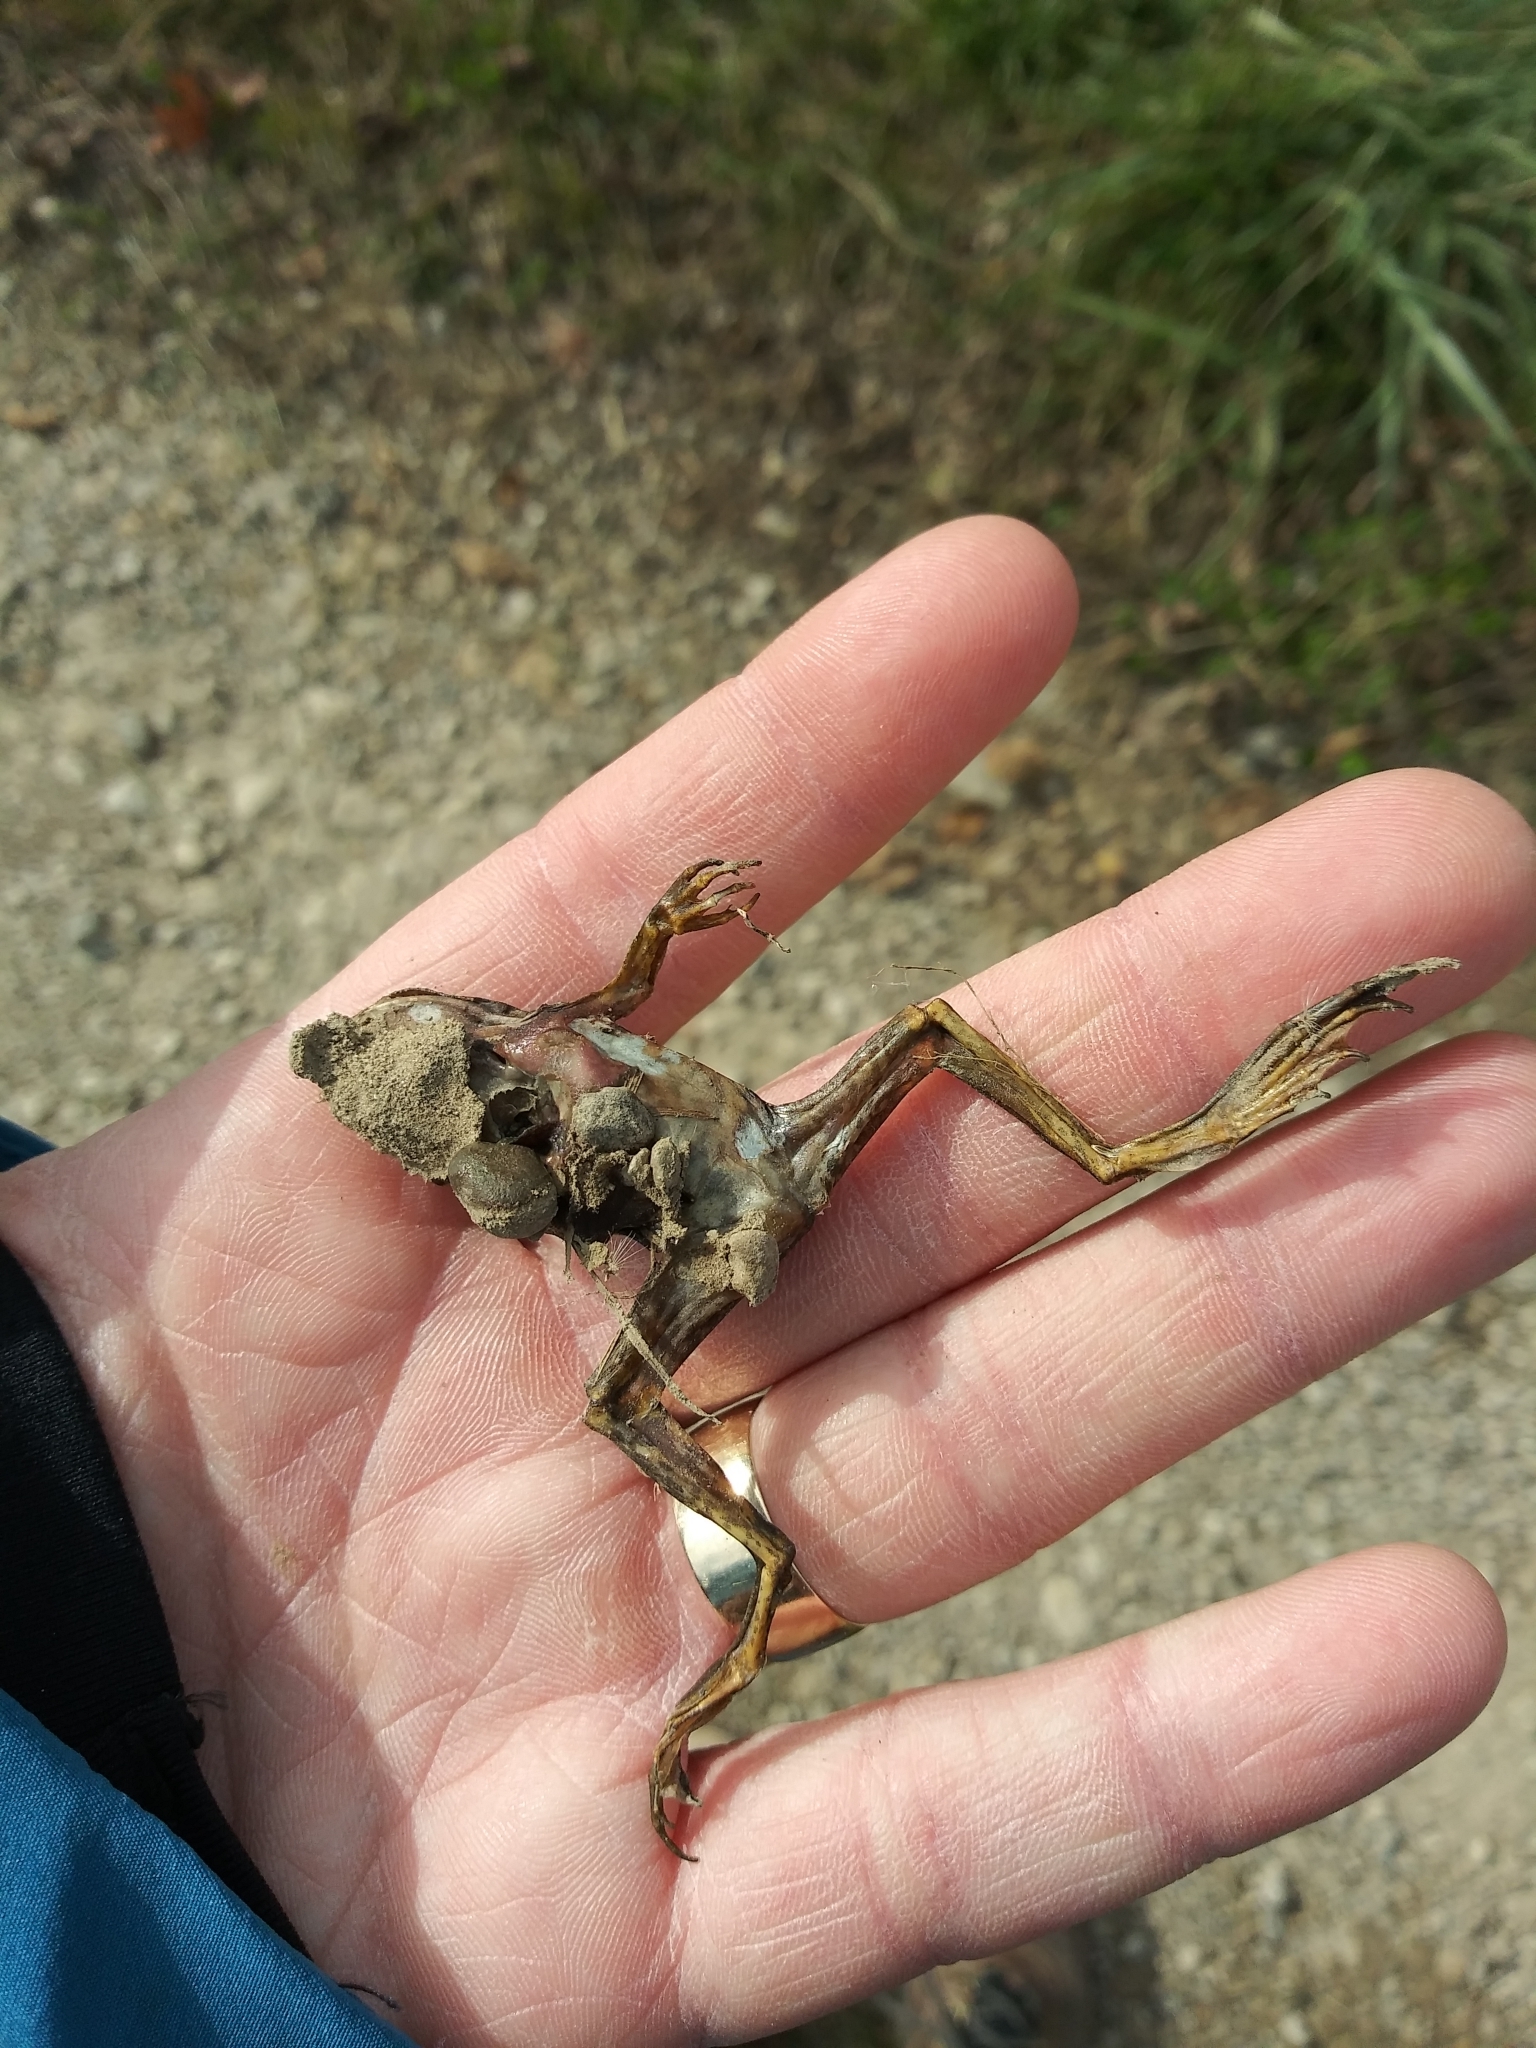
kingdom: Animalia
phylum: Chordata
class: Amphibia
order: Anura
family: Ranidae
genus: Lithobates
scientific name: Lithobates
